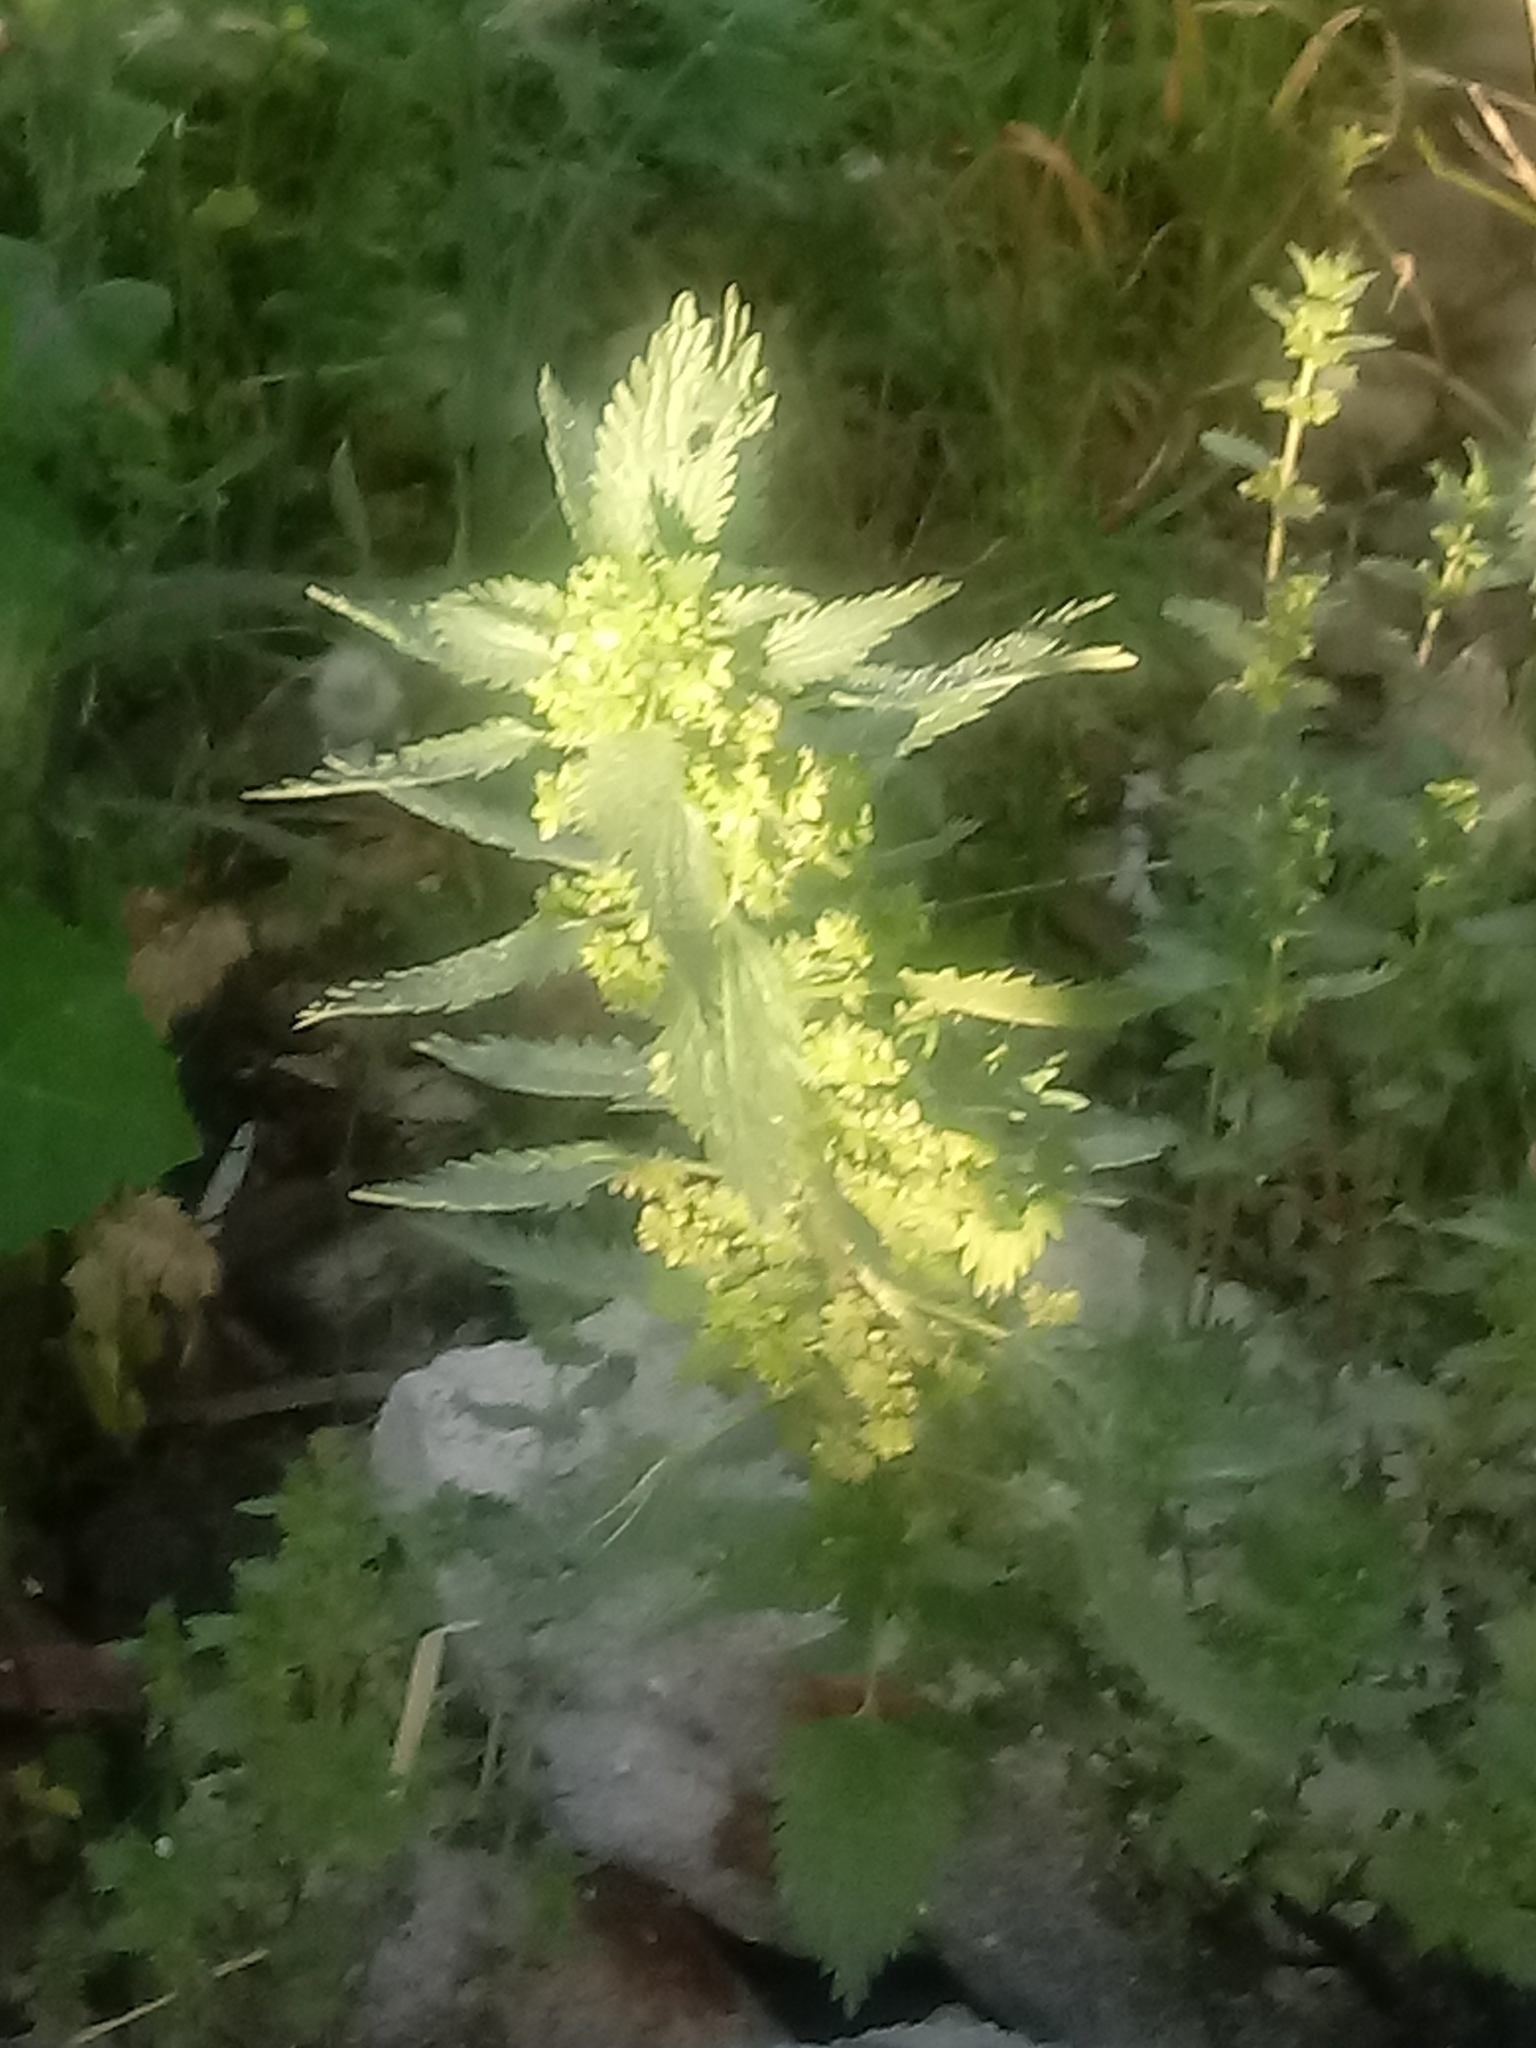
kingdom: Plantae
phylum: Tracheophyta
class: Magnoliopsida
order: Rosales
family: Urticaceae
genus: Urtica
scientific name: Urtica urens
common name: Dwarf nettle
